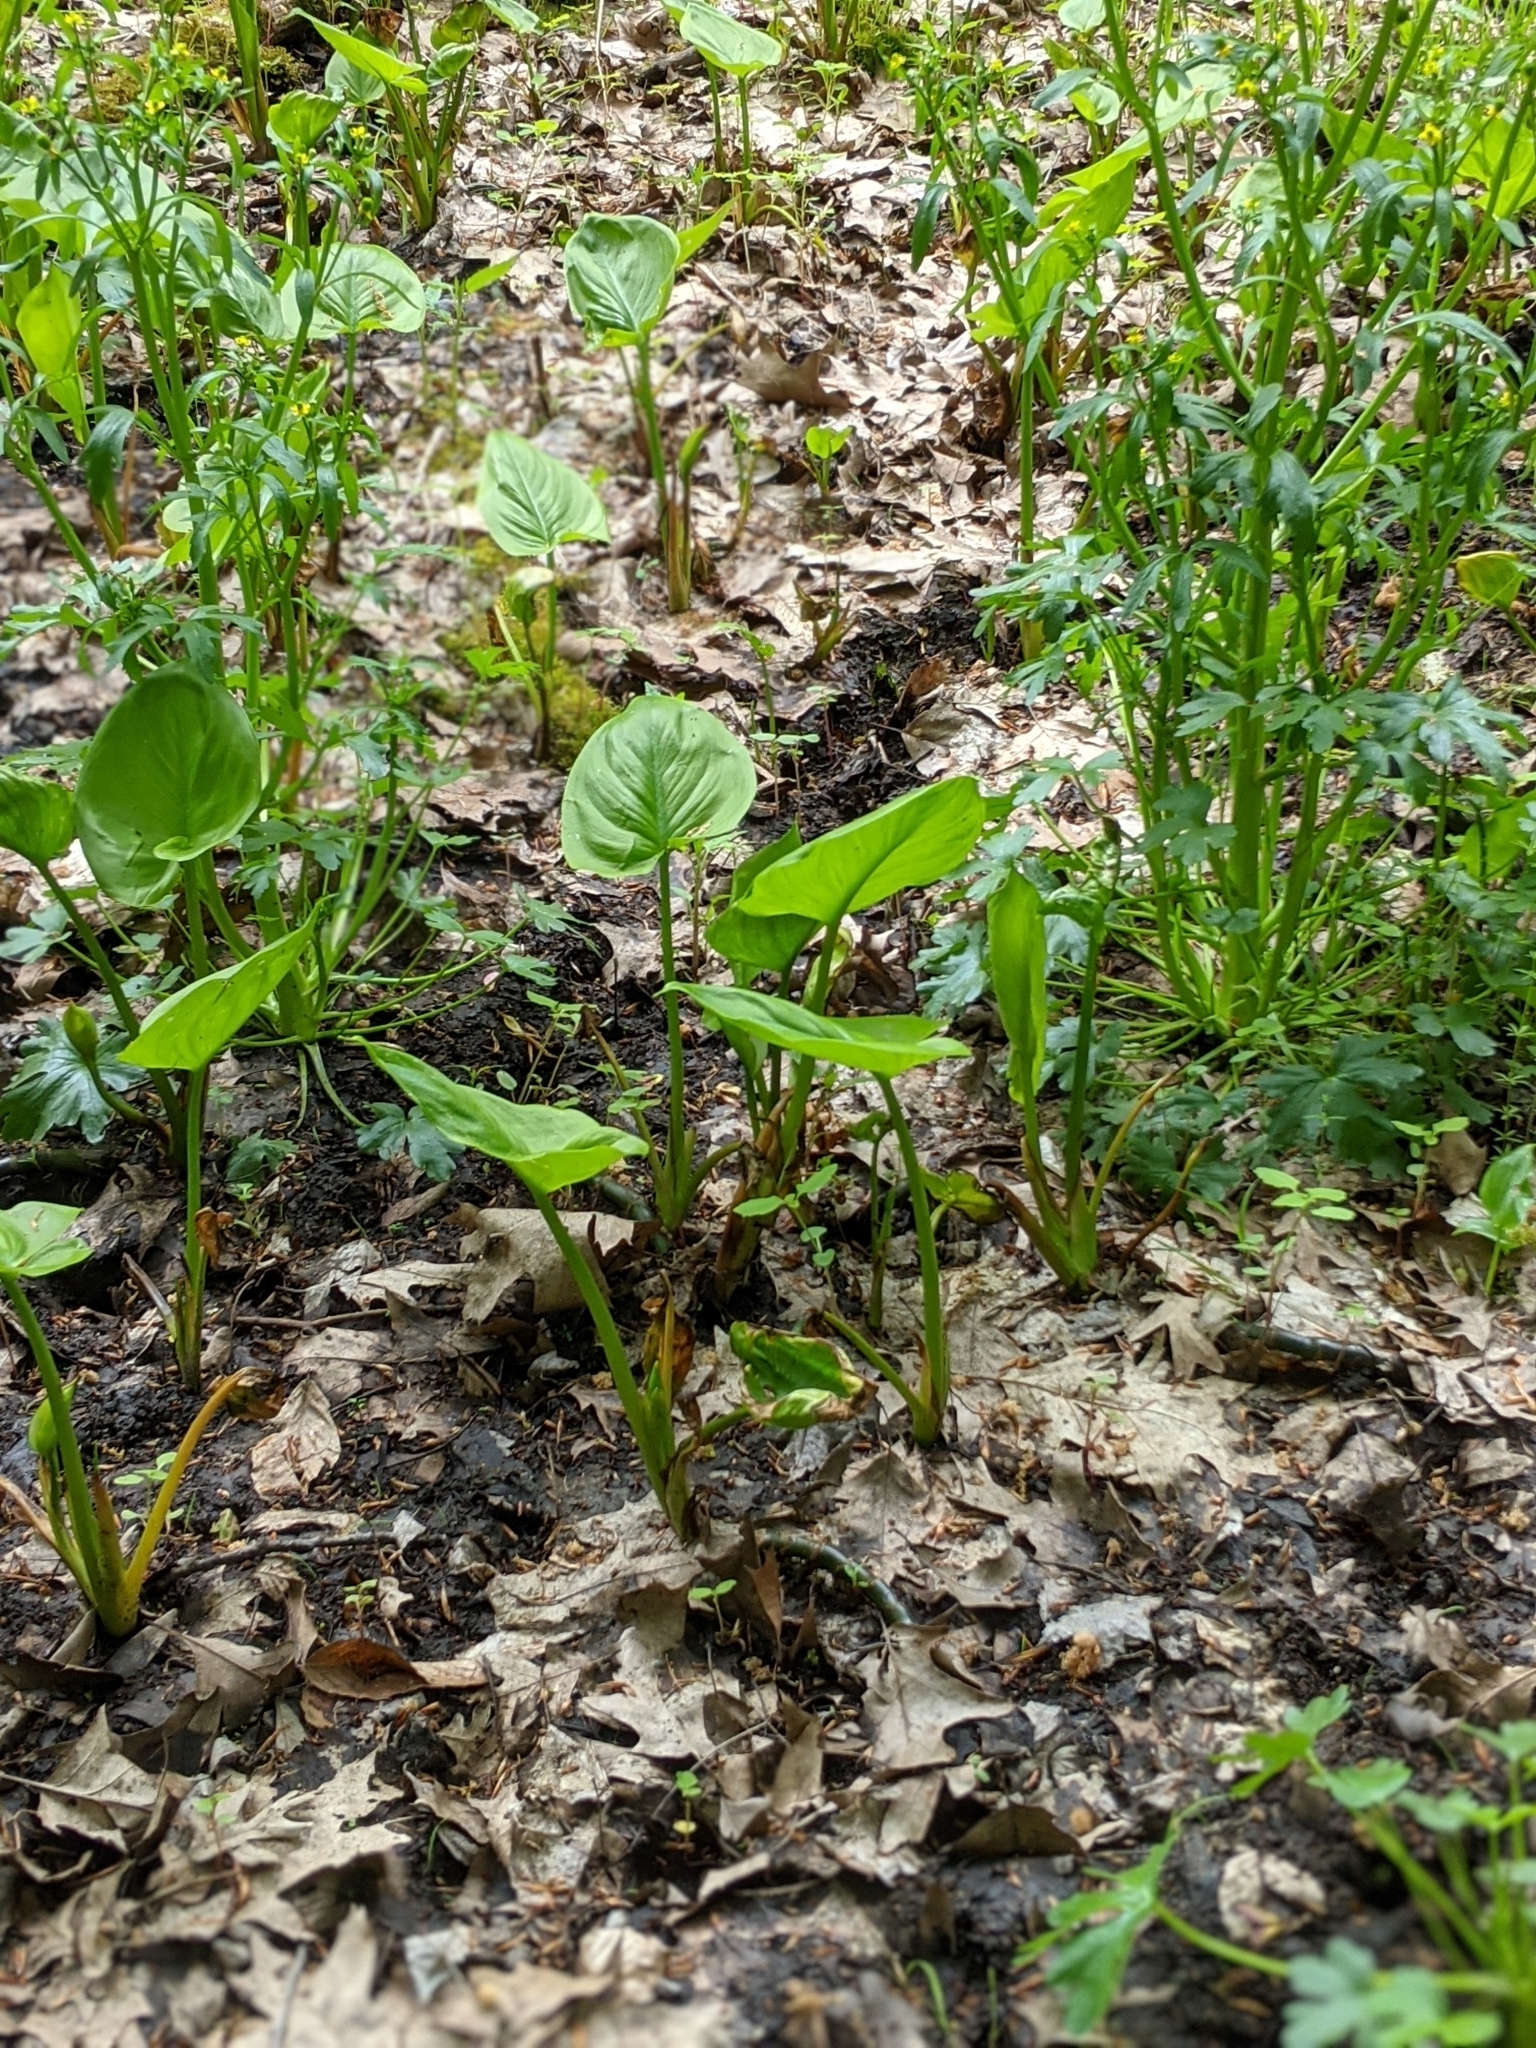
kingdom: Plantae
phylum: Tracheophyta
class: Liliopsida
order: Alismatales
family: Araceae
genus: Calla
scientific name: Calla palustris
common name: Bog arum
